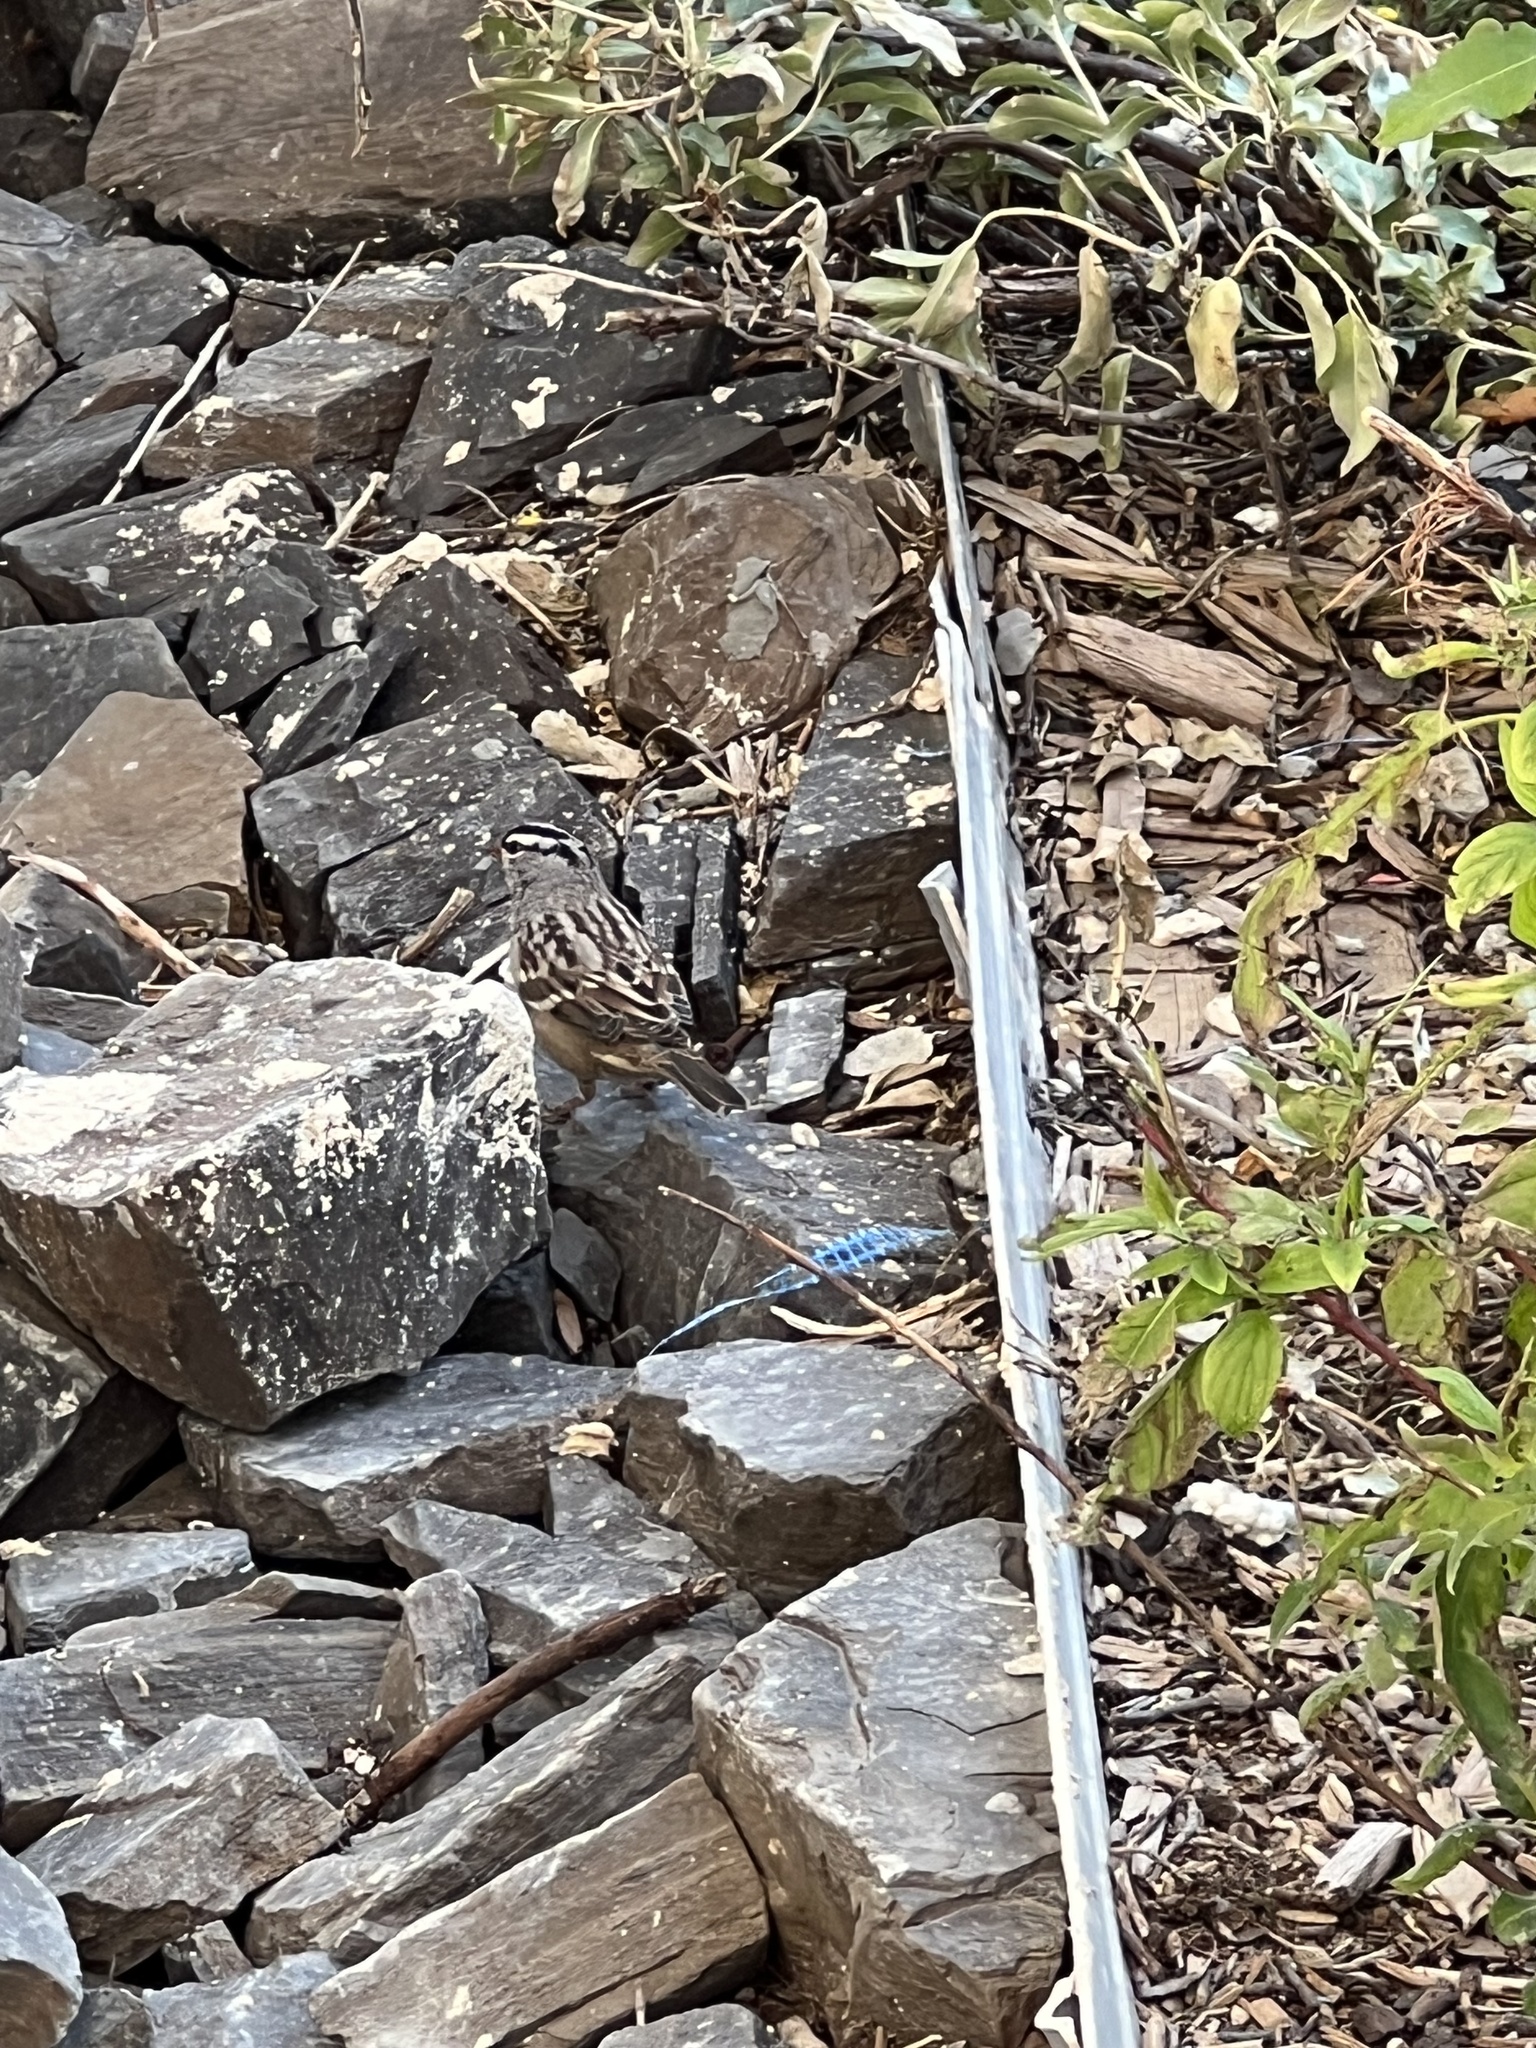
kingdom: Animalia
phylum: Chordata
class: Aves
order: Passeriformes
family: Passerellidae
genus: Zonotrichia
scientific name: Zonotrichia leucophrys
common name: White-crowned sparrow
